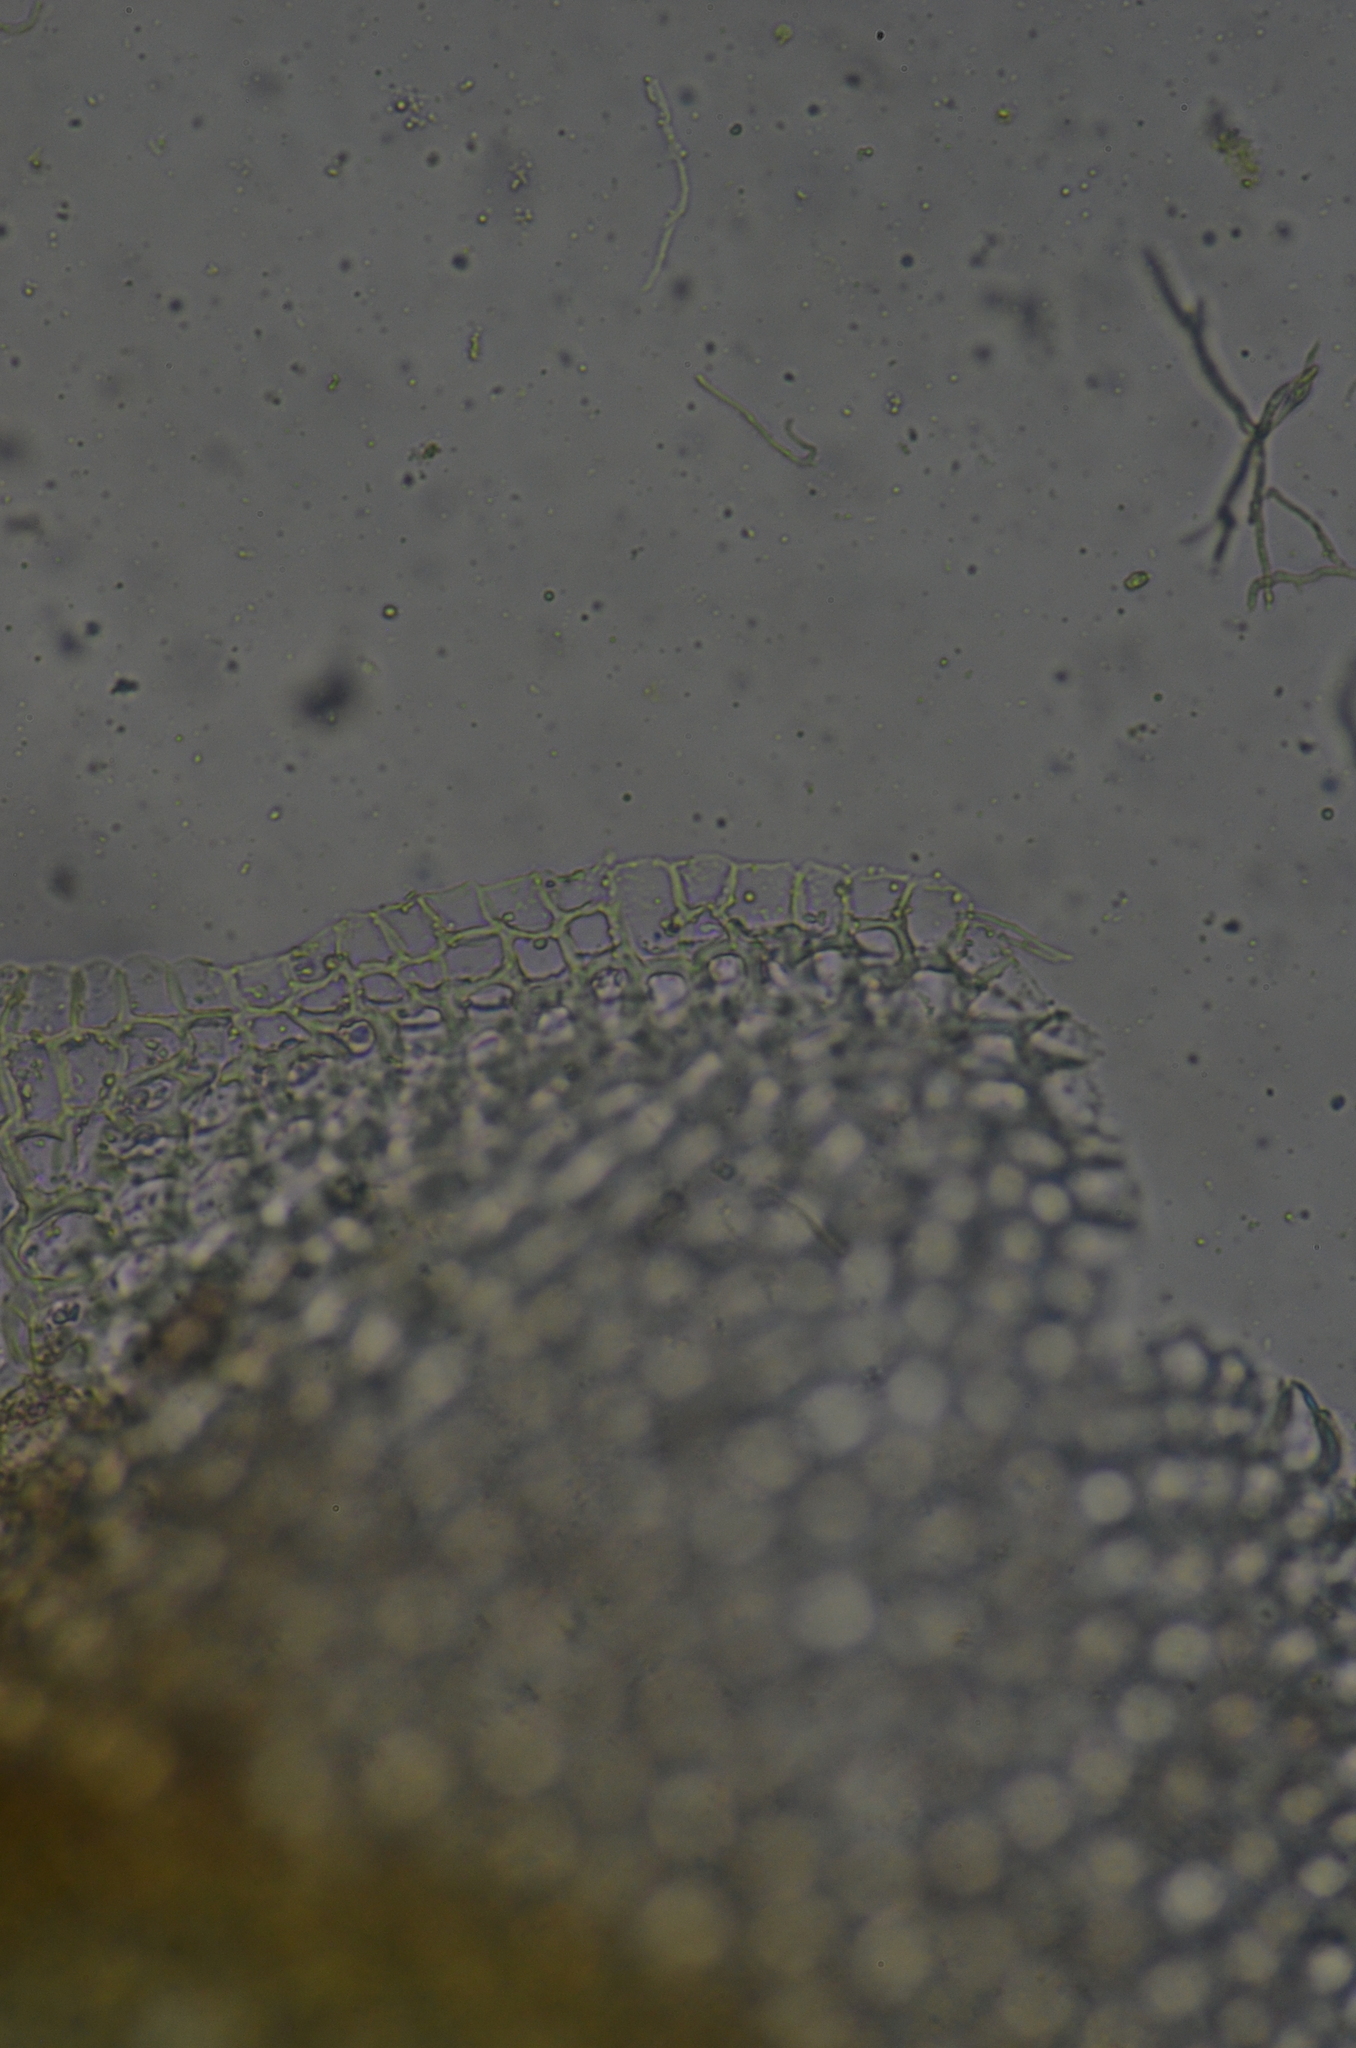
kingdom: Plantae
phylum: Marchantiophyta
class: Jungermanniopsida
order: Jungermanniales
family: Gymnomitriaceae
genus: Gymnomitrion
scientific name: Gymnomitrion corallioides
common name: Coral frostwort
